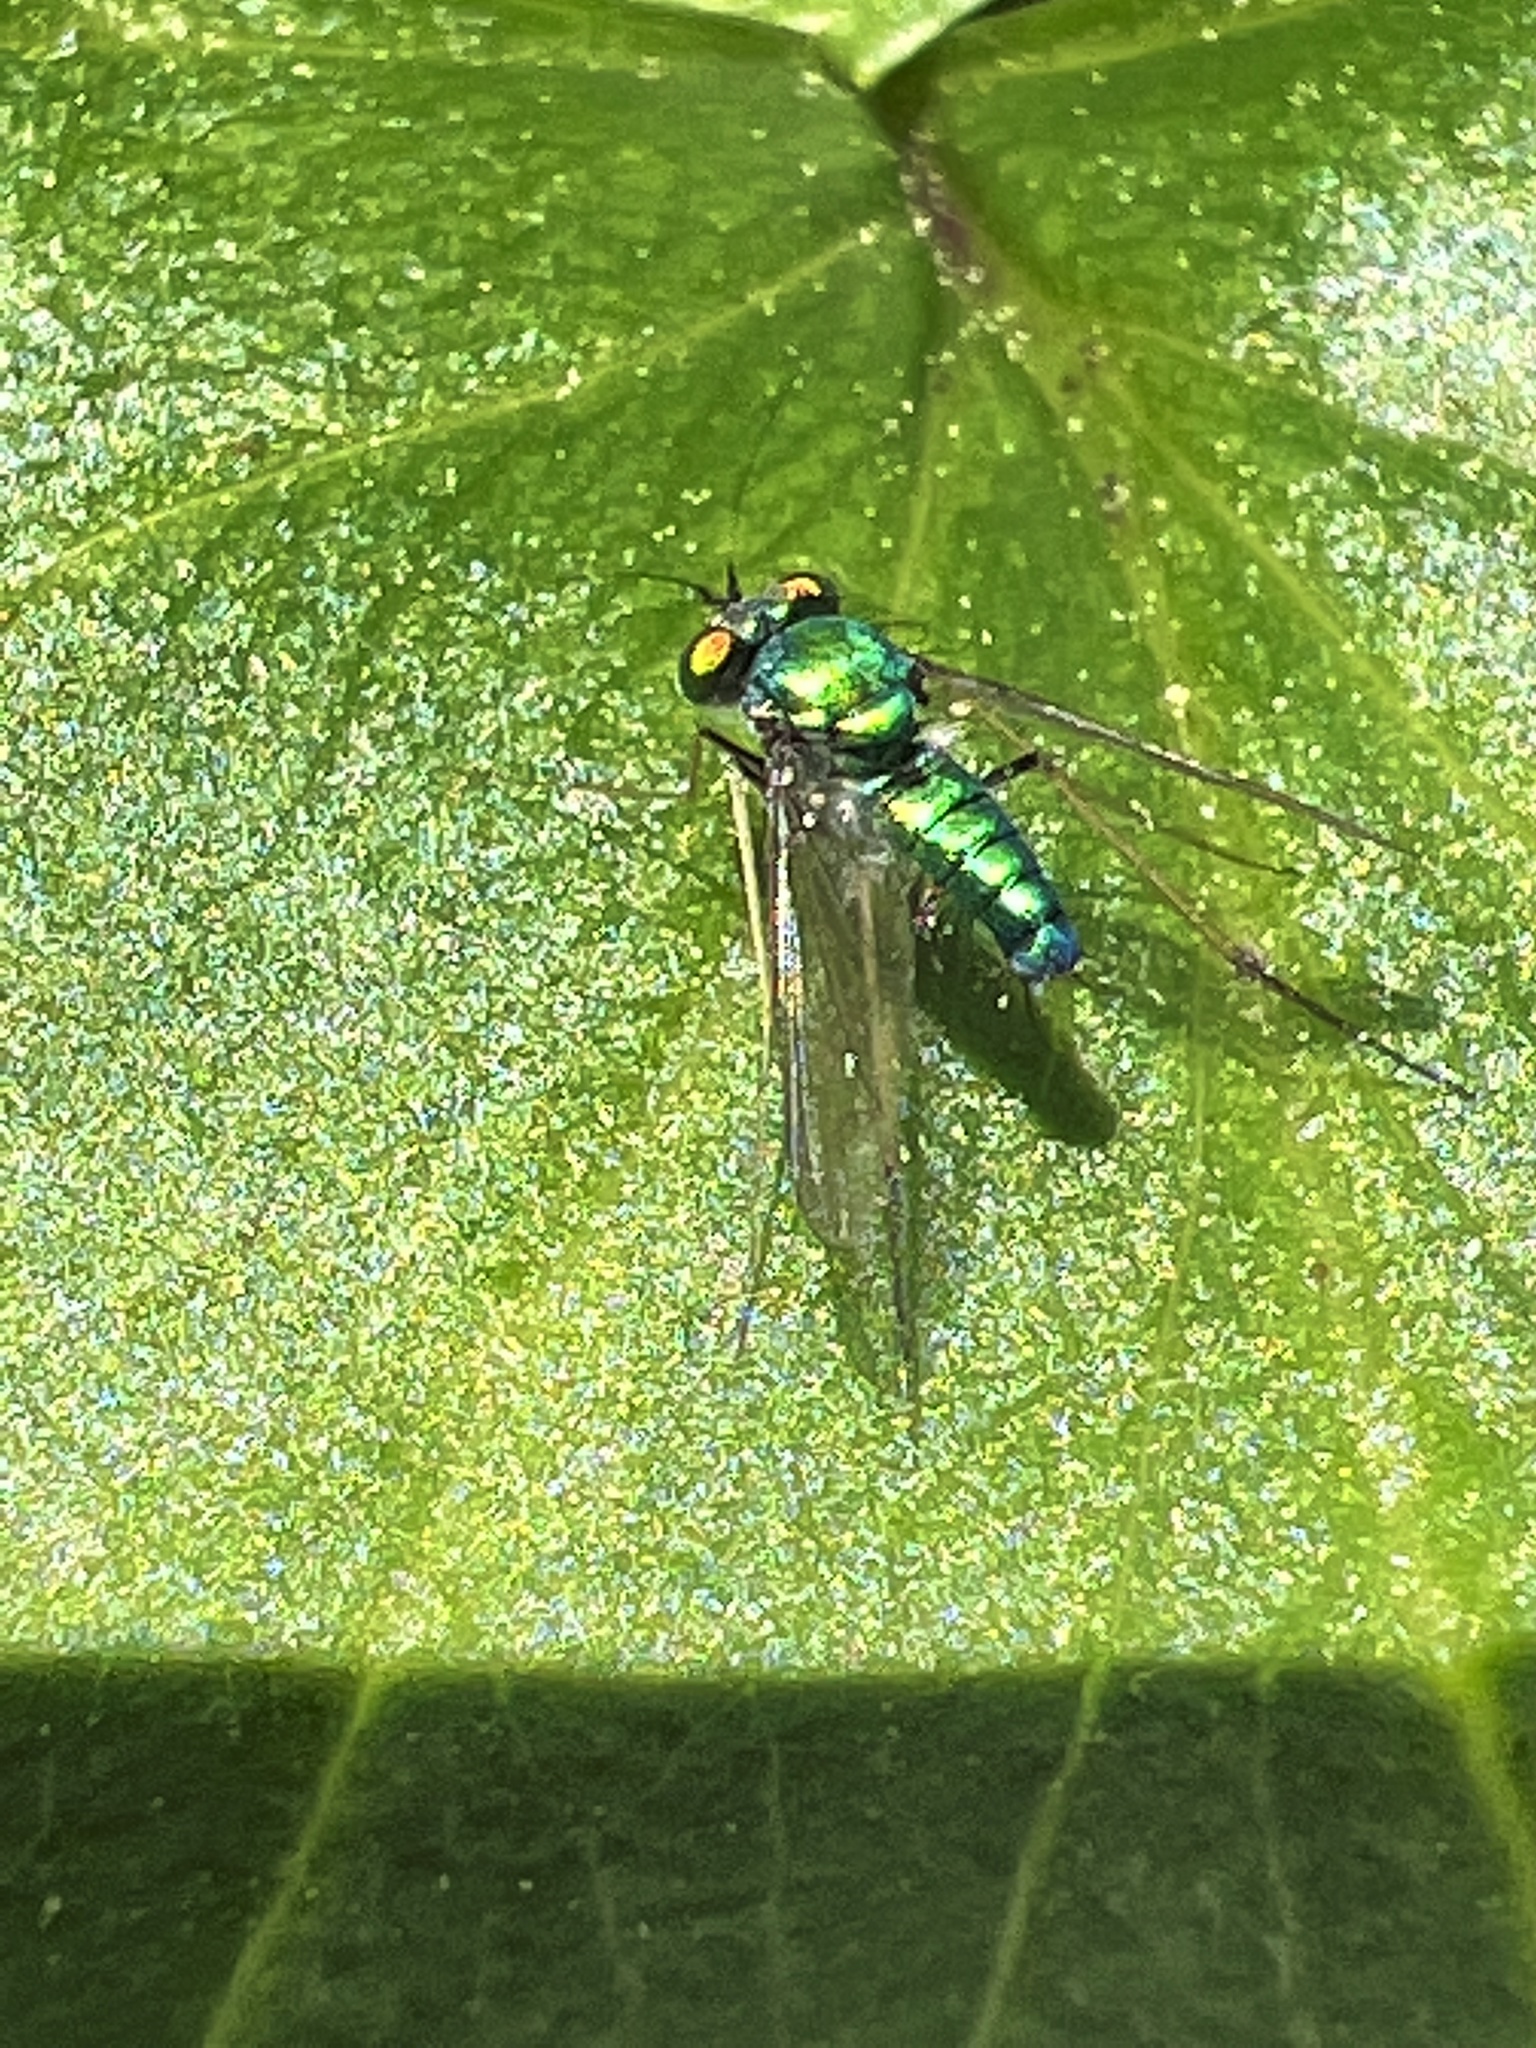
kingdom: Animalia
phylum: Arthropoda
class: Insecta
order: Diptera
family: Dolichopodidae
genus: Condylostylus
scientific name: Condylostylus comatus
